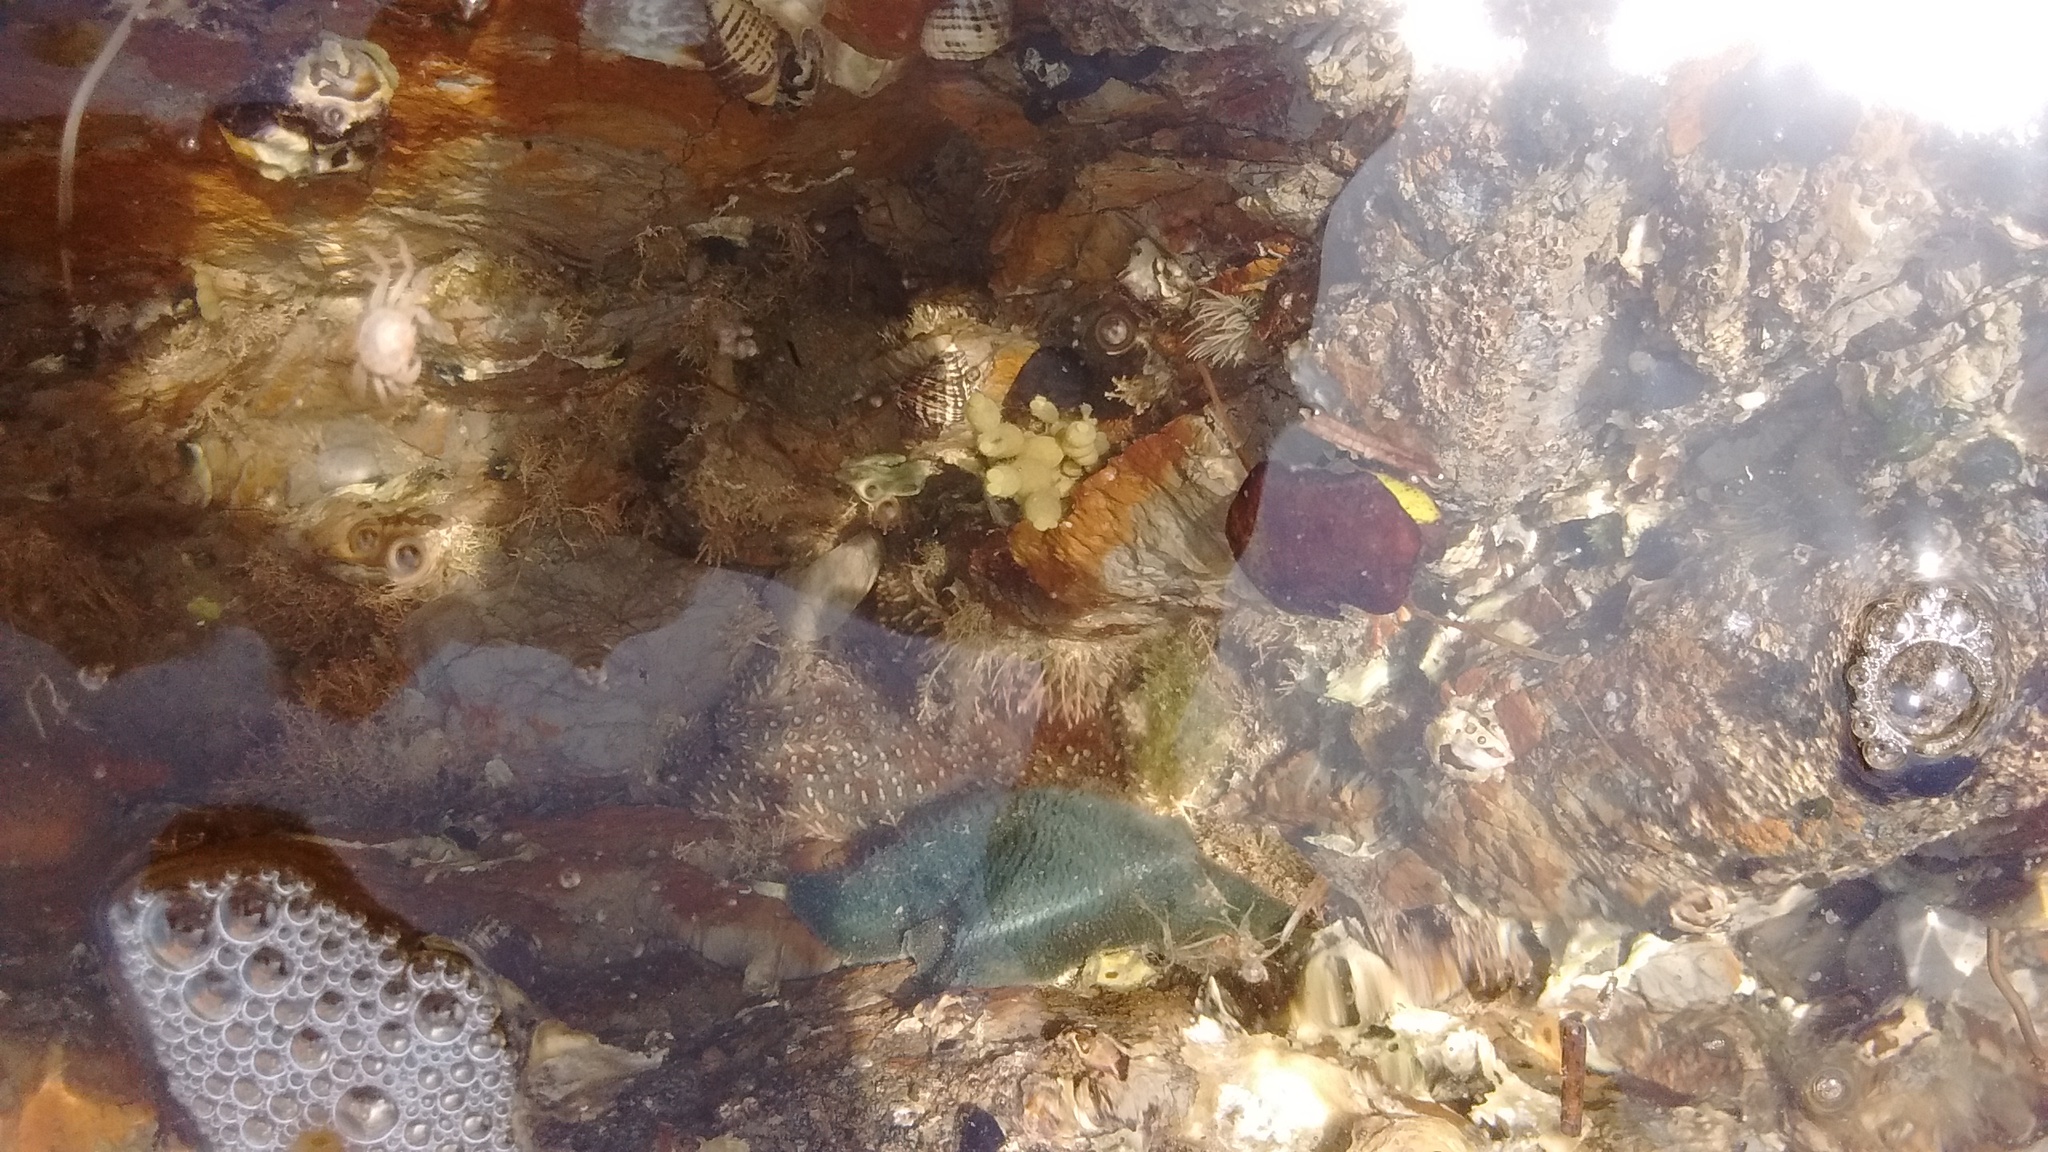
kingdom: Animalia
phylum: Echinodermata
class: Asteroidea
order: Forcipulatida
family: Asteriidae
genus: Coscinasterias
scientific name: Coscinasterias muricata
